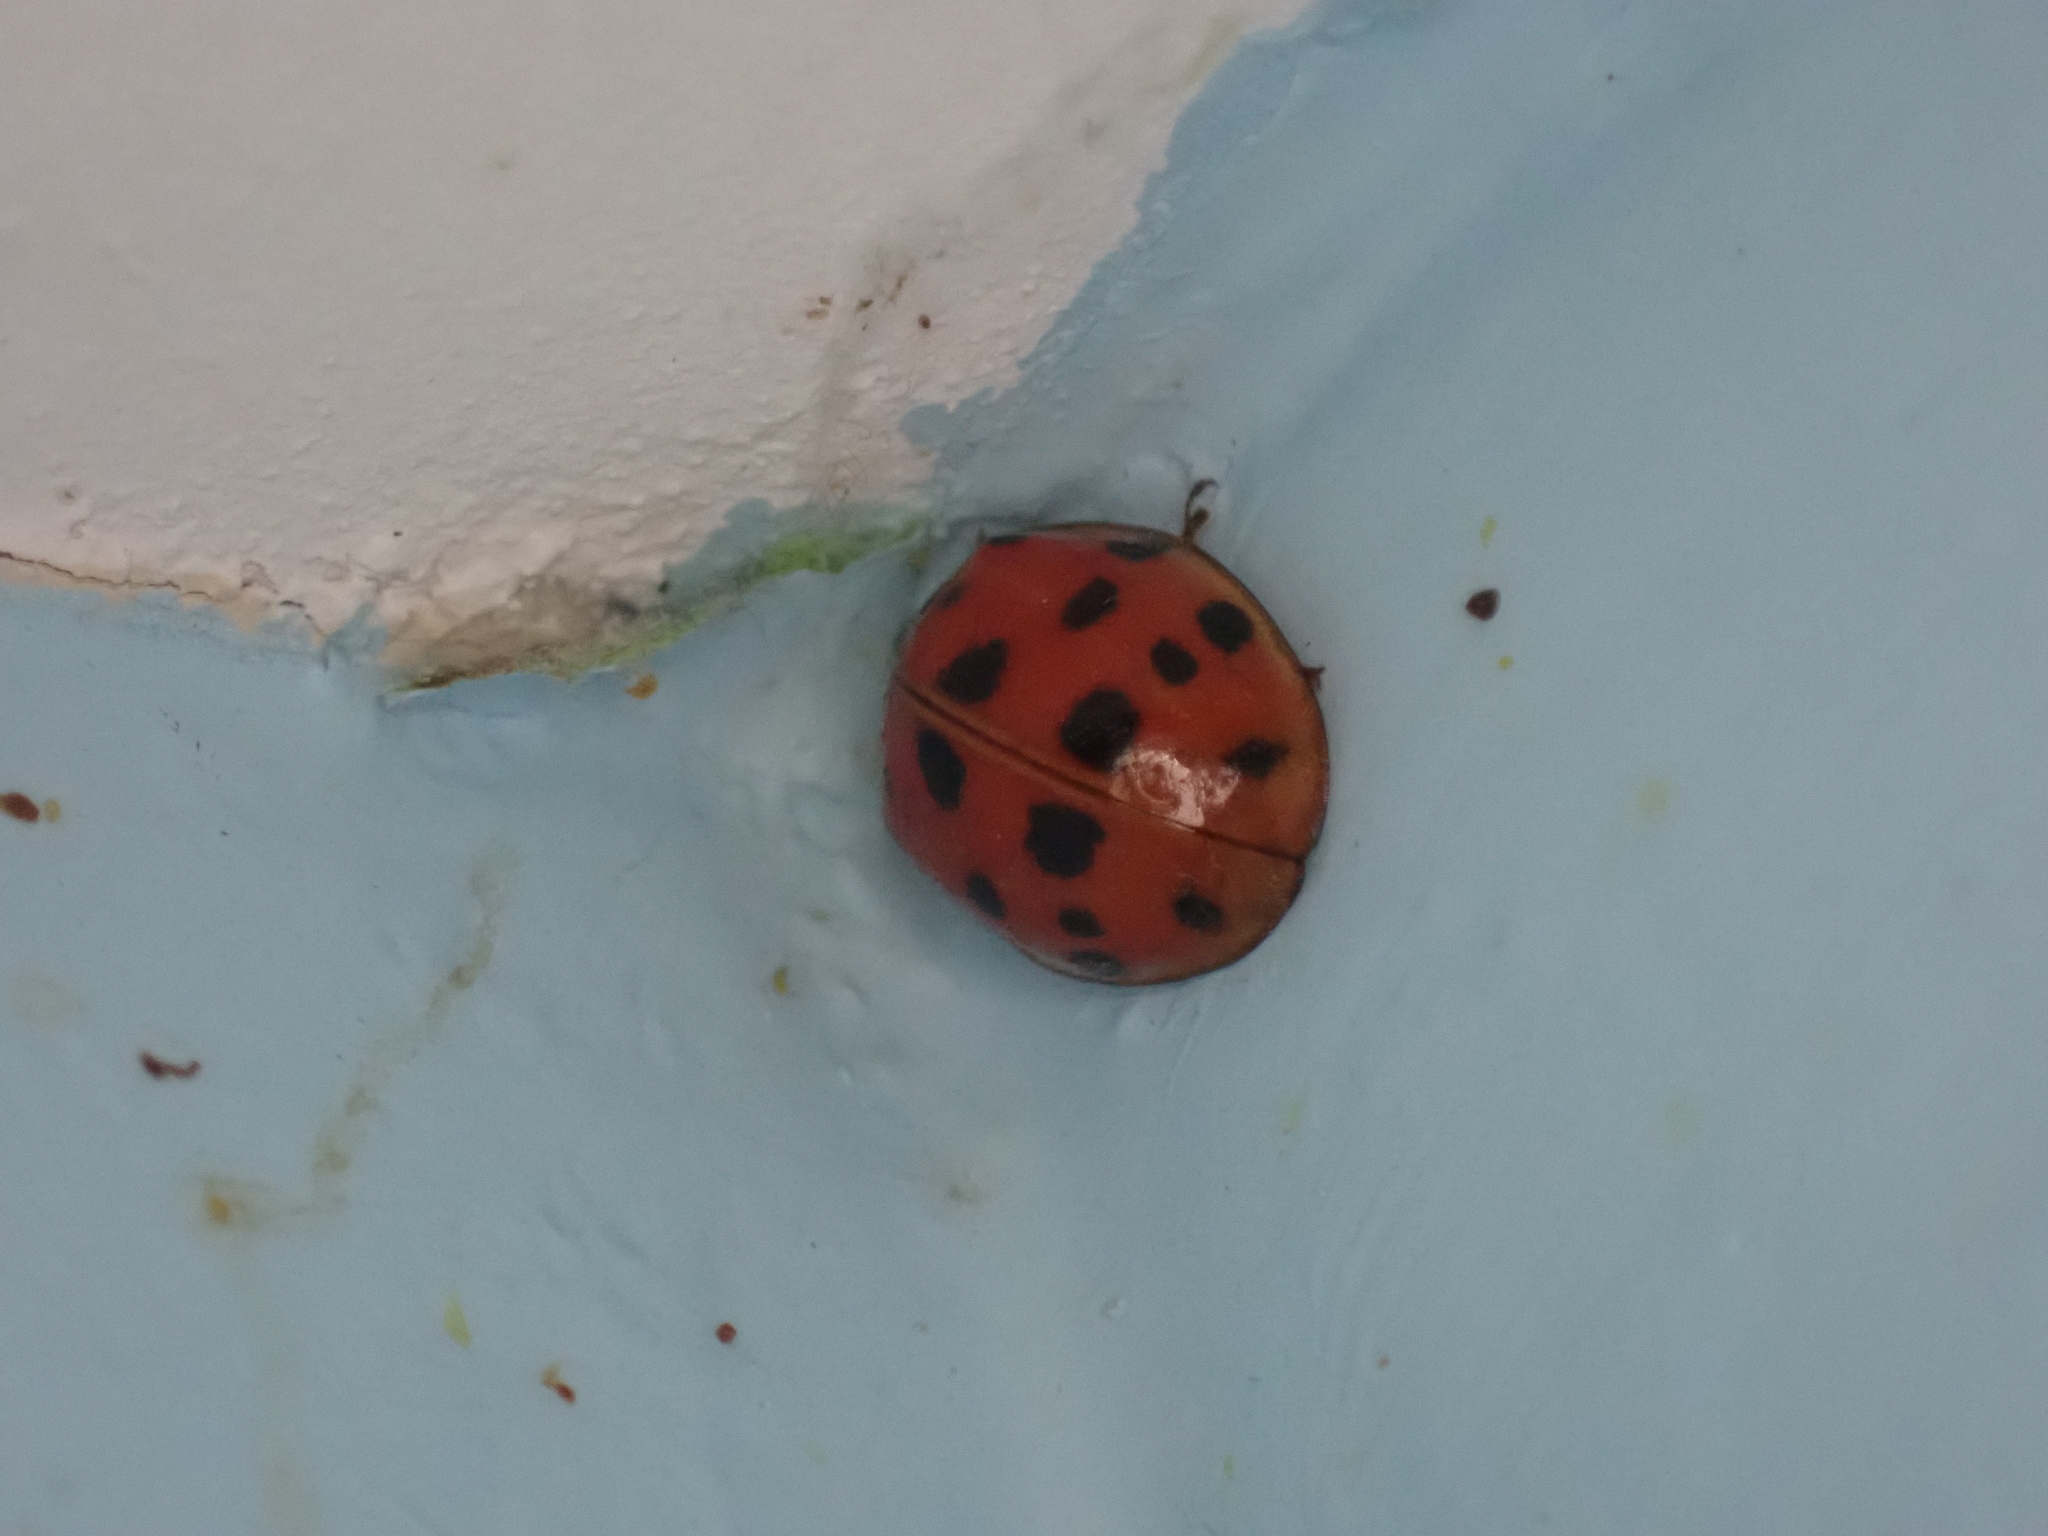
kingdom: Animalia
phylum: Arthropoda
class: Insecta
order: Coleoptera
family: Coccinellidae
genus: Harmonia
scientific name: Harmonia axyridis
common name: Harlequin ladybird
